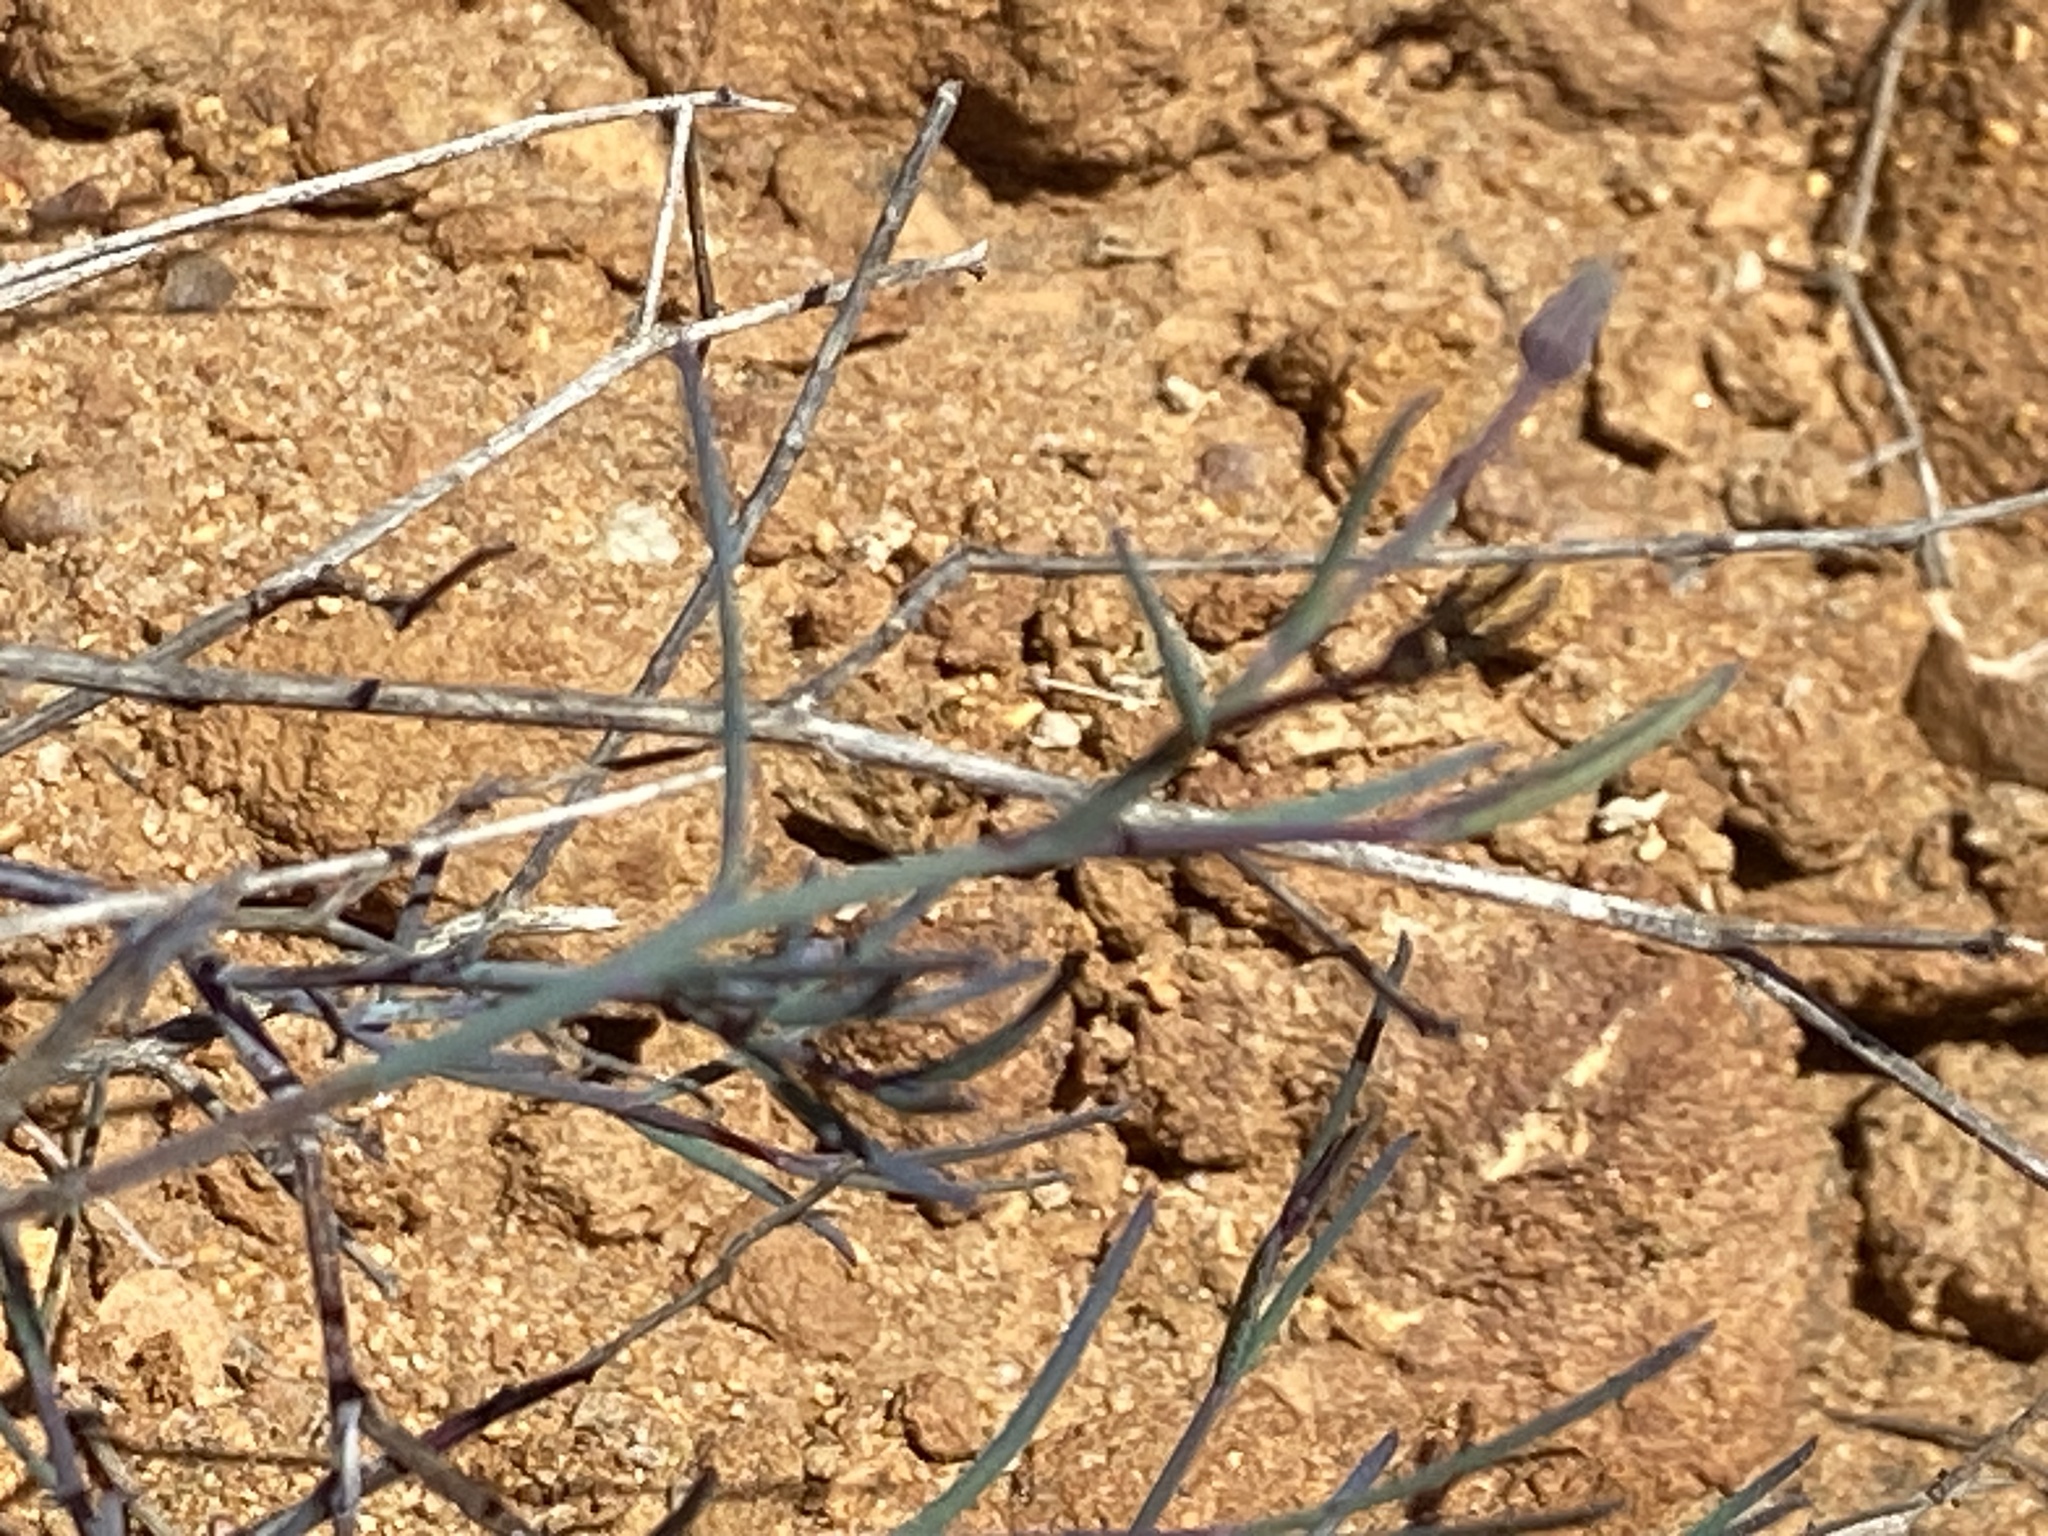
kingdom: Plantae
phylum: Tracheophyta
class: Magnoliopsida
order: Asterales
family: Asteraceae
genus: Porophyllum
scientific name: Porophyllum gracile
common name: Odora
